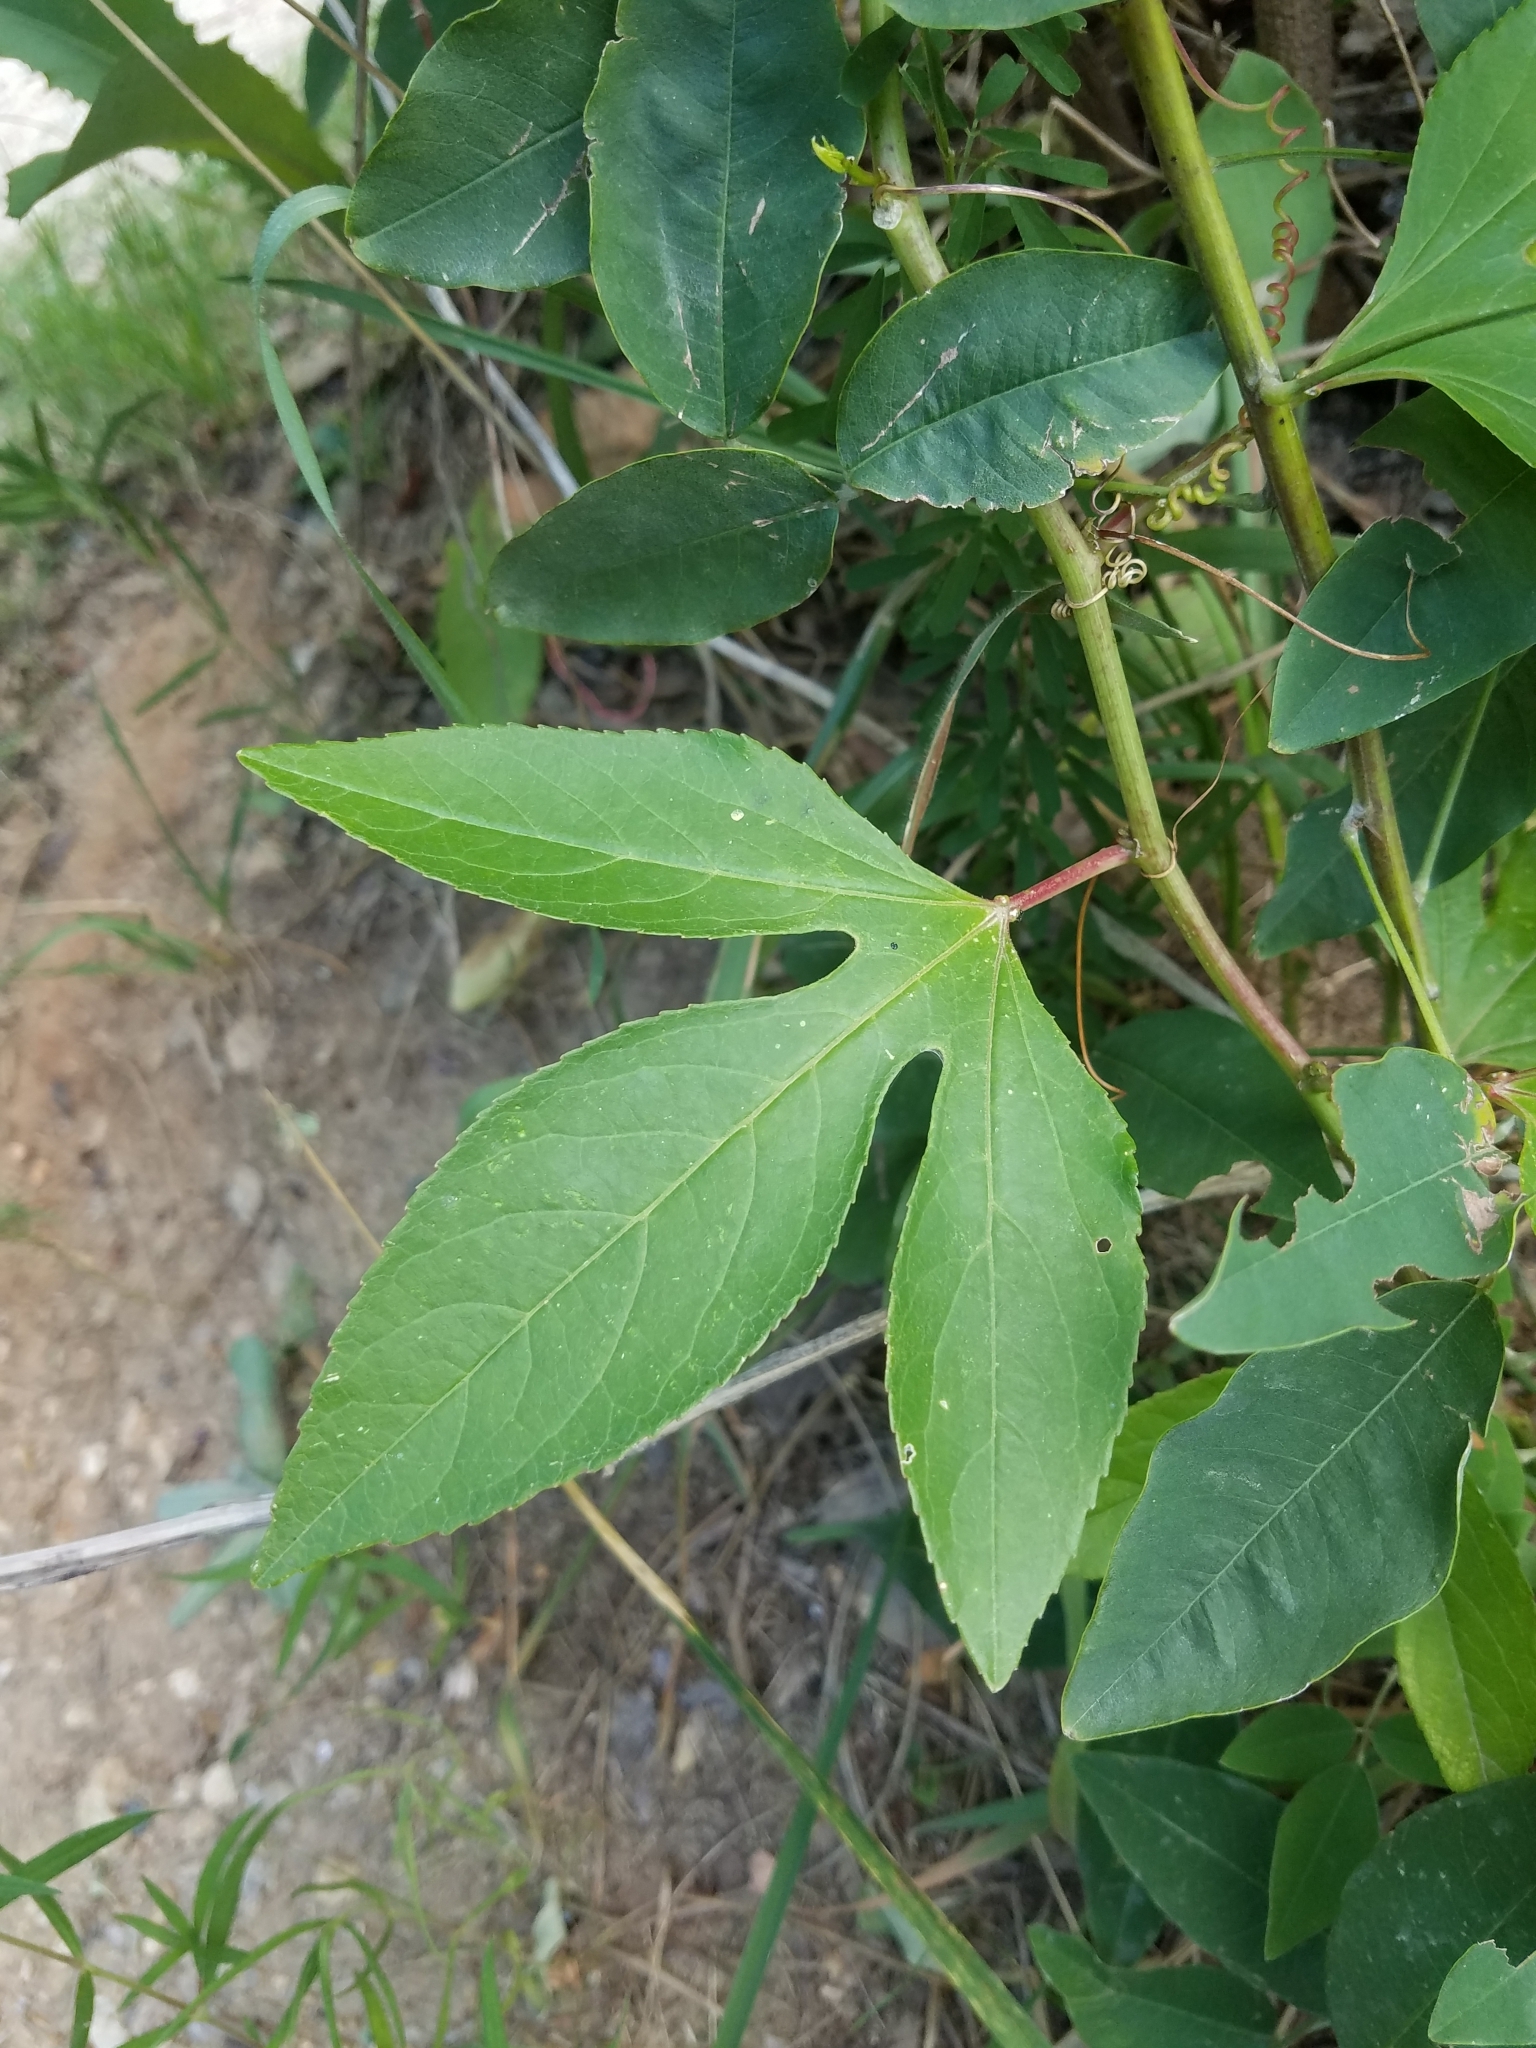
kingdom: Plantae
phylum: Tracheophyta
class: Magnoliopsida
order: Malpighiales
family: Passifloraceae
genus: Passiflora
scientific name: Passiflora incarnata
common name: Apricot-vine
